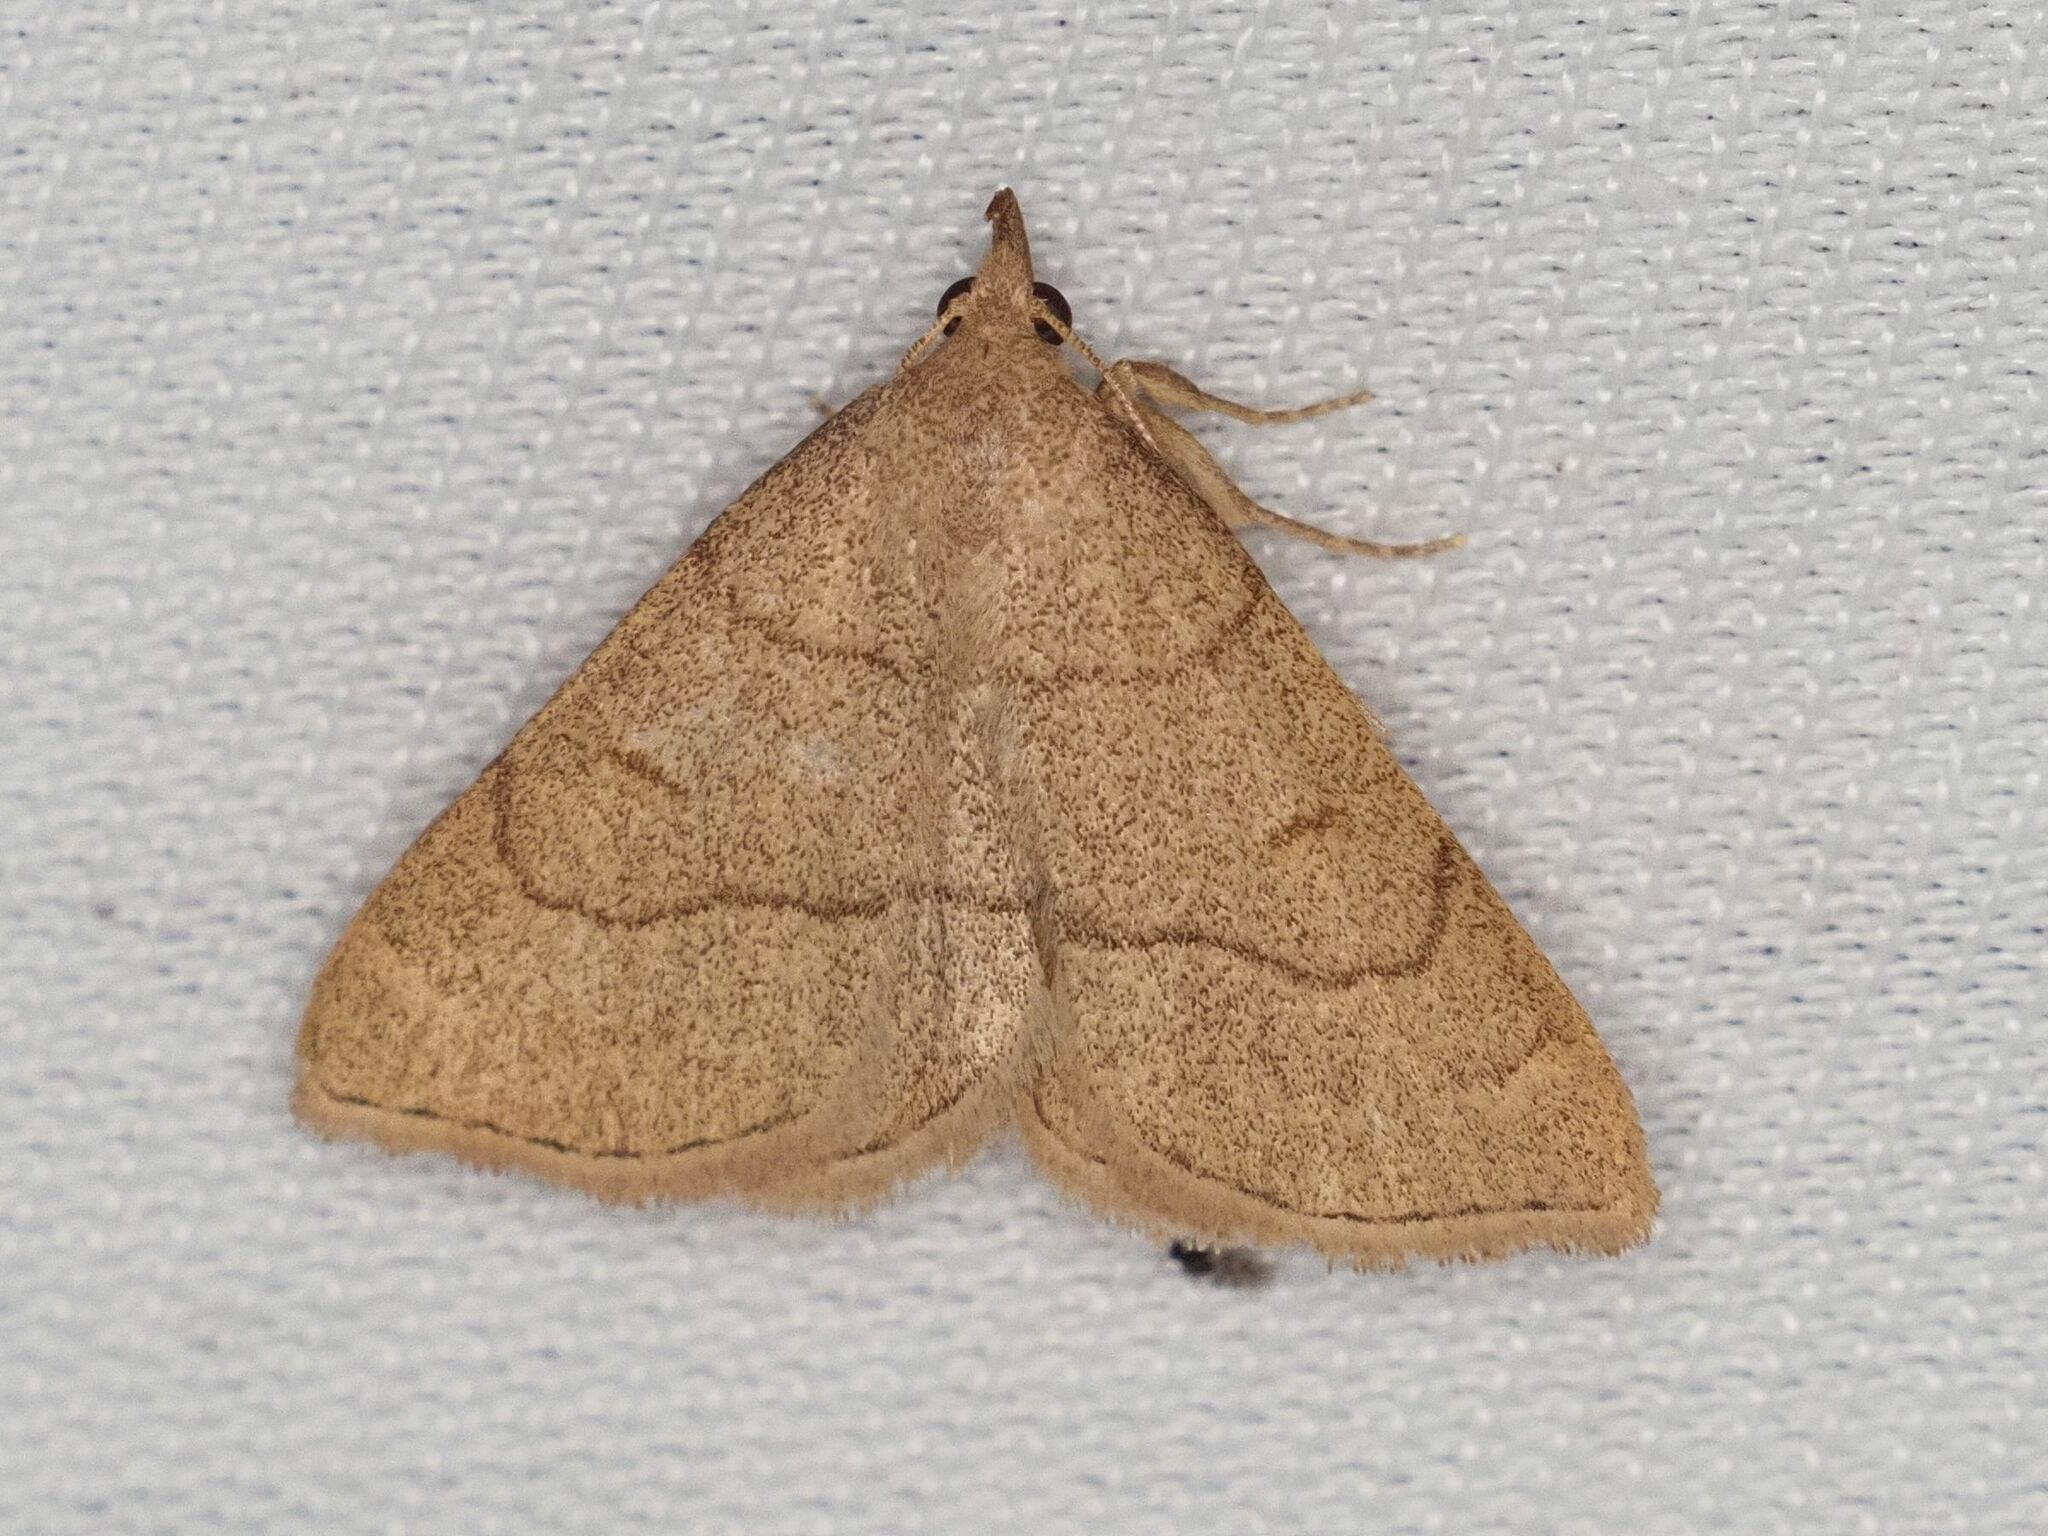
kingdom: Animalia
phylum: Arthropoda
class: Insecta
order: Lepidoptera
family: Erebidae
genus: Paracolax
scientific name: Paracolax tristalis
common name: Clay fan-foot
